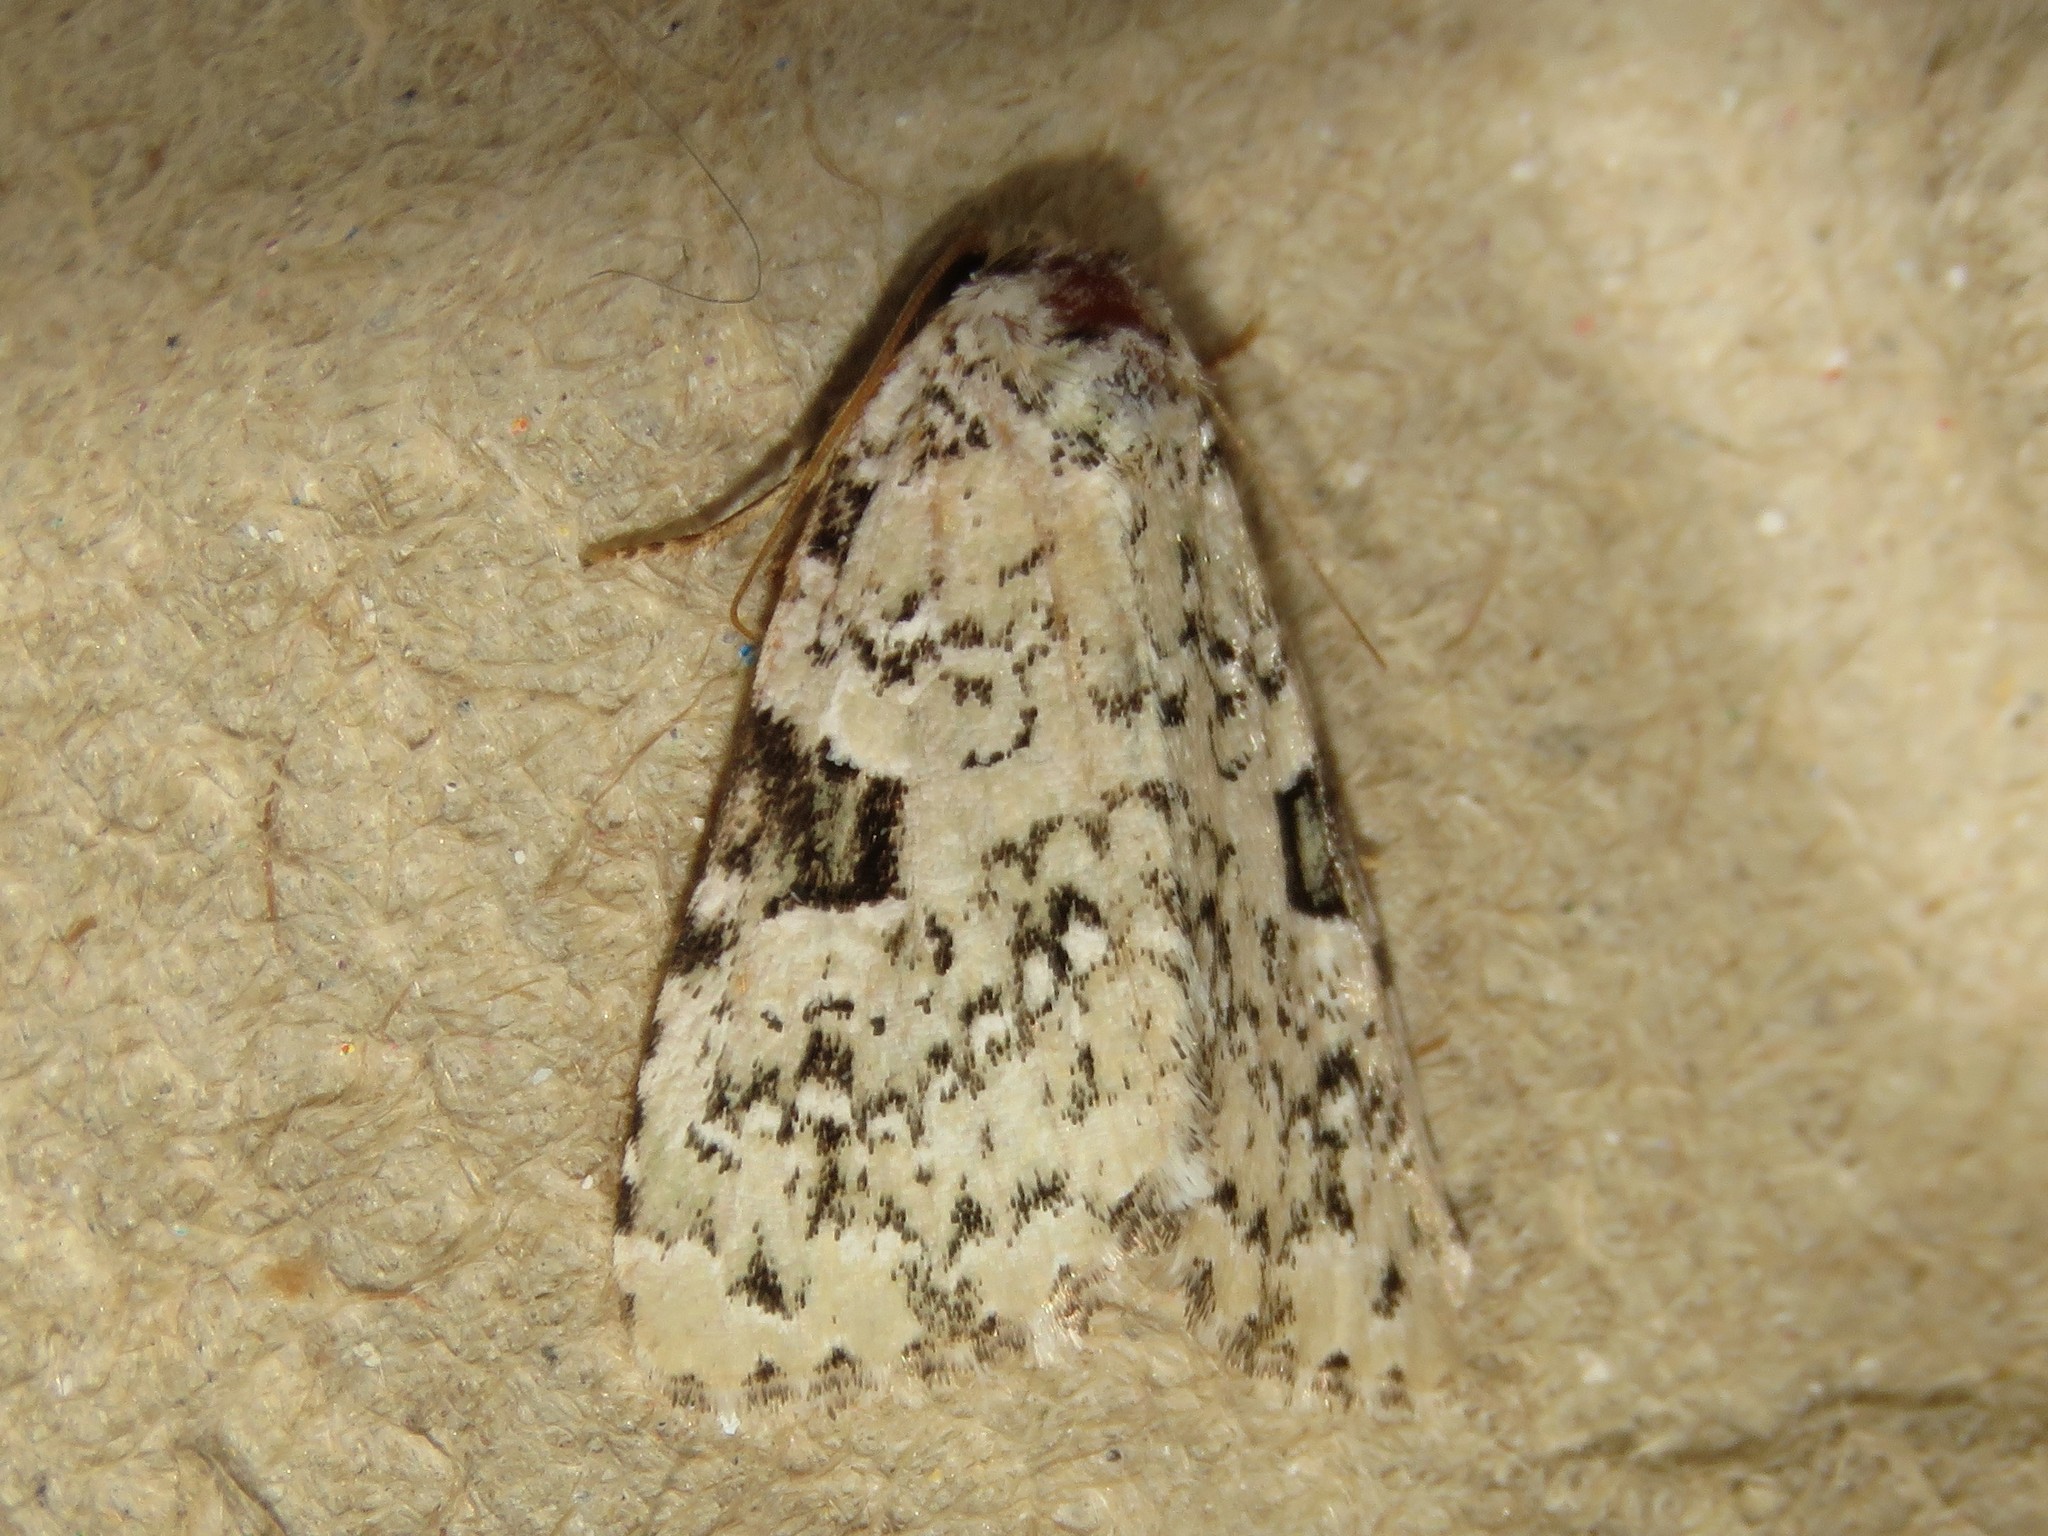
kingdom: Animalia
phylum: Arthropoda
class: Insecta
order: Lepidoptera
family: Noctuidae
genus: Leuconycta
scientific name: Leuconycta diphteroides
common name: Green leuconycta moth
